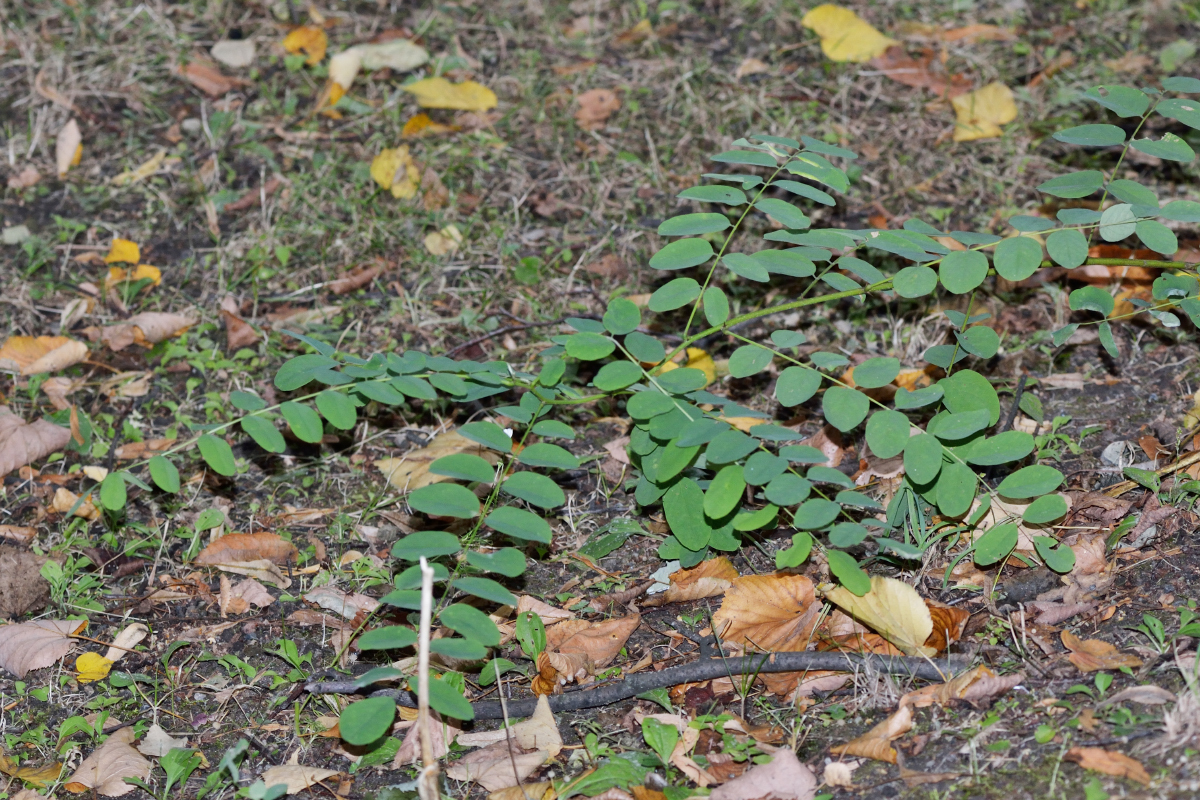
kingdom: Plantae
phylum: Tracheophyta
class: Magnoliopsida
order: Fabales
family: Fabaceae
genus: Robinia
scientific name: Robinia pseudoacacia
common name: Black locust
